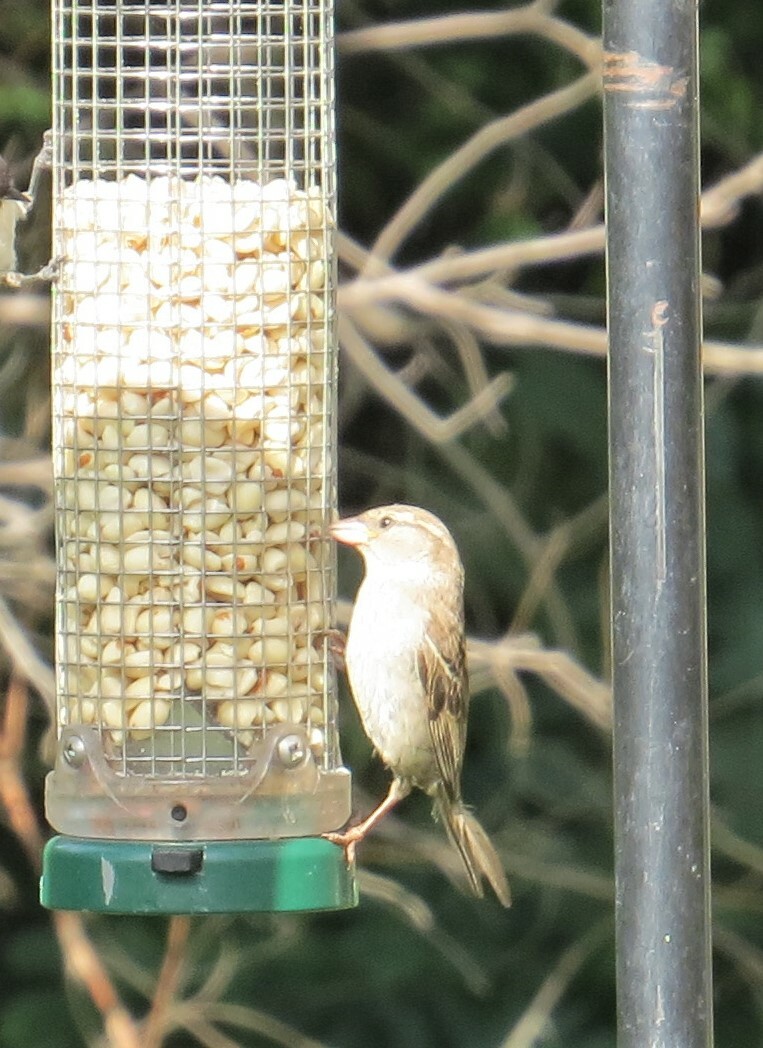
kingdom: Animalia
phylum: Chordata
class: Aves
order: Passeriformes
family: Passeridae
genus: Passer
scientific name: Passer domesticus
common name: House sparrow
